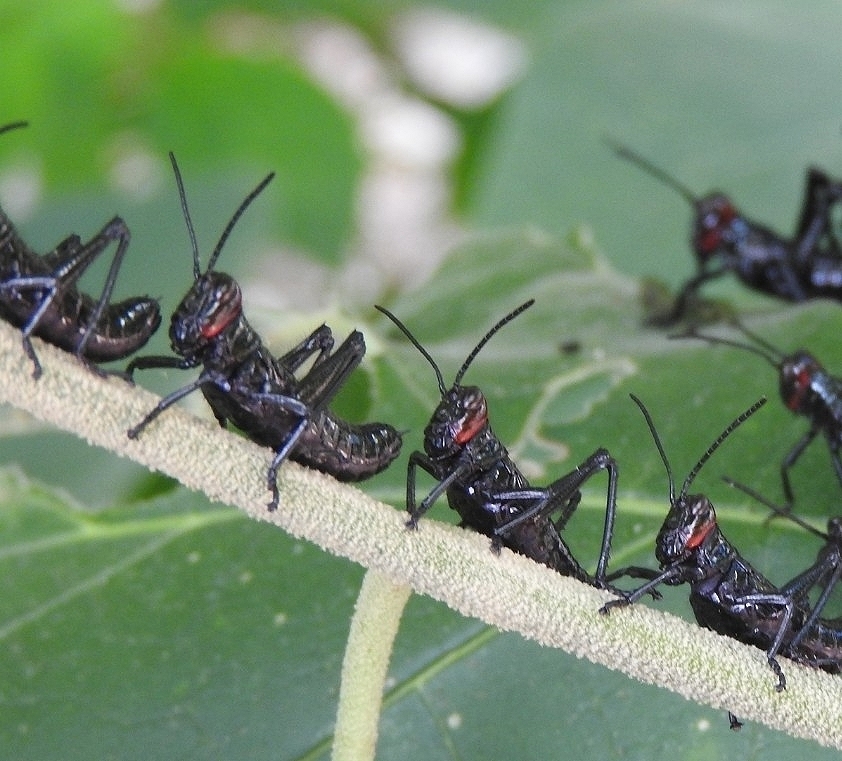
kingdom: Animalia
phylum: Arthropoda
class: Insecta
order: Orthoptera
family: Romaleidae
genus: Chromacris
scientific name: Chromacris miles
